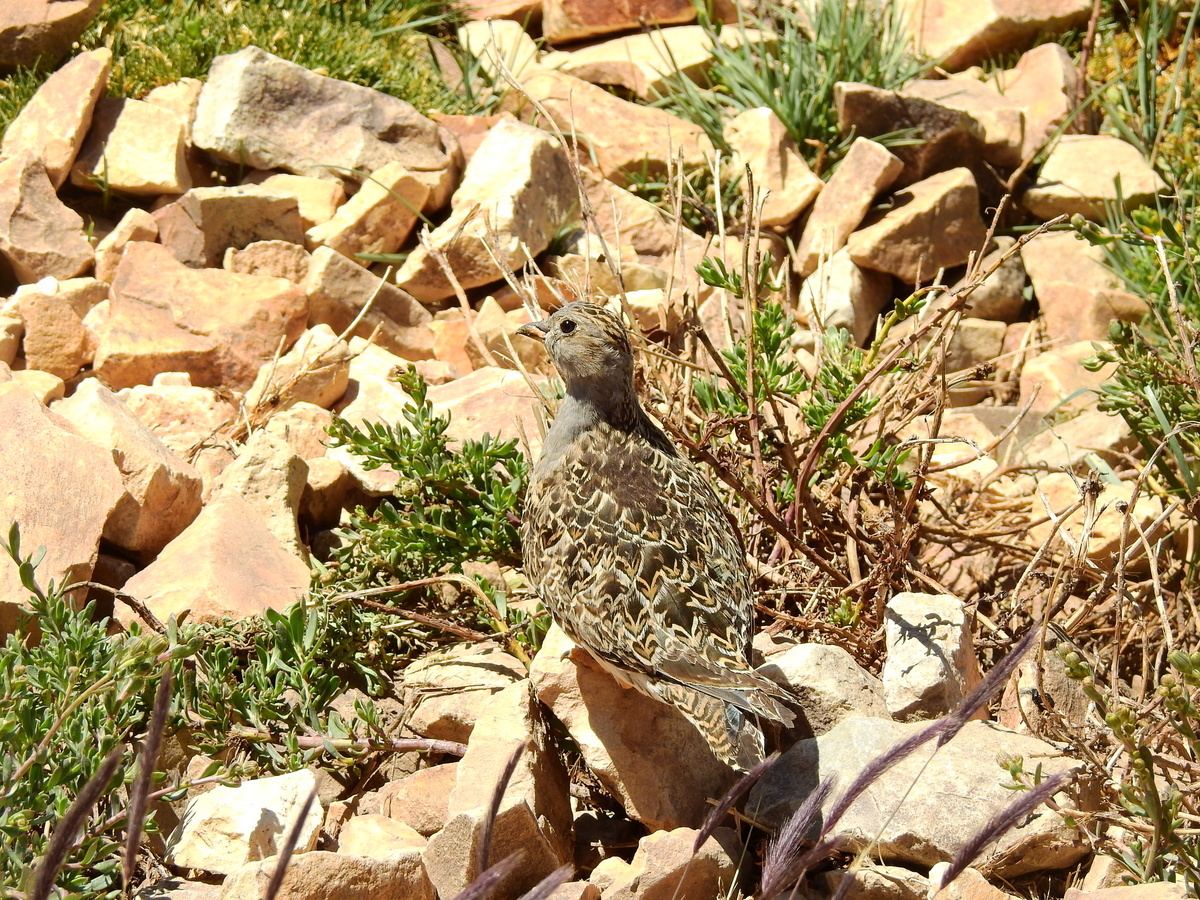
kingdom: Animalia
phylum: Chordata
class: Aves
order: Charadriiformes
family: Thinocoridae
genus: Thinocorus
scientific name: Thinocorus orbignyianus
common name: Grey-breasted seedsnipe
